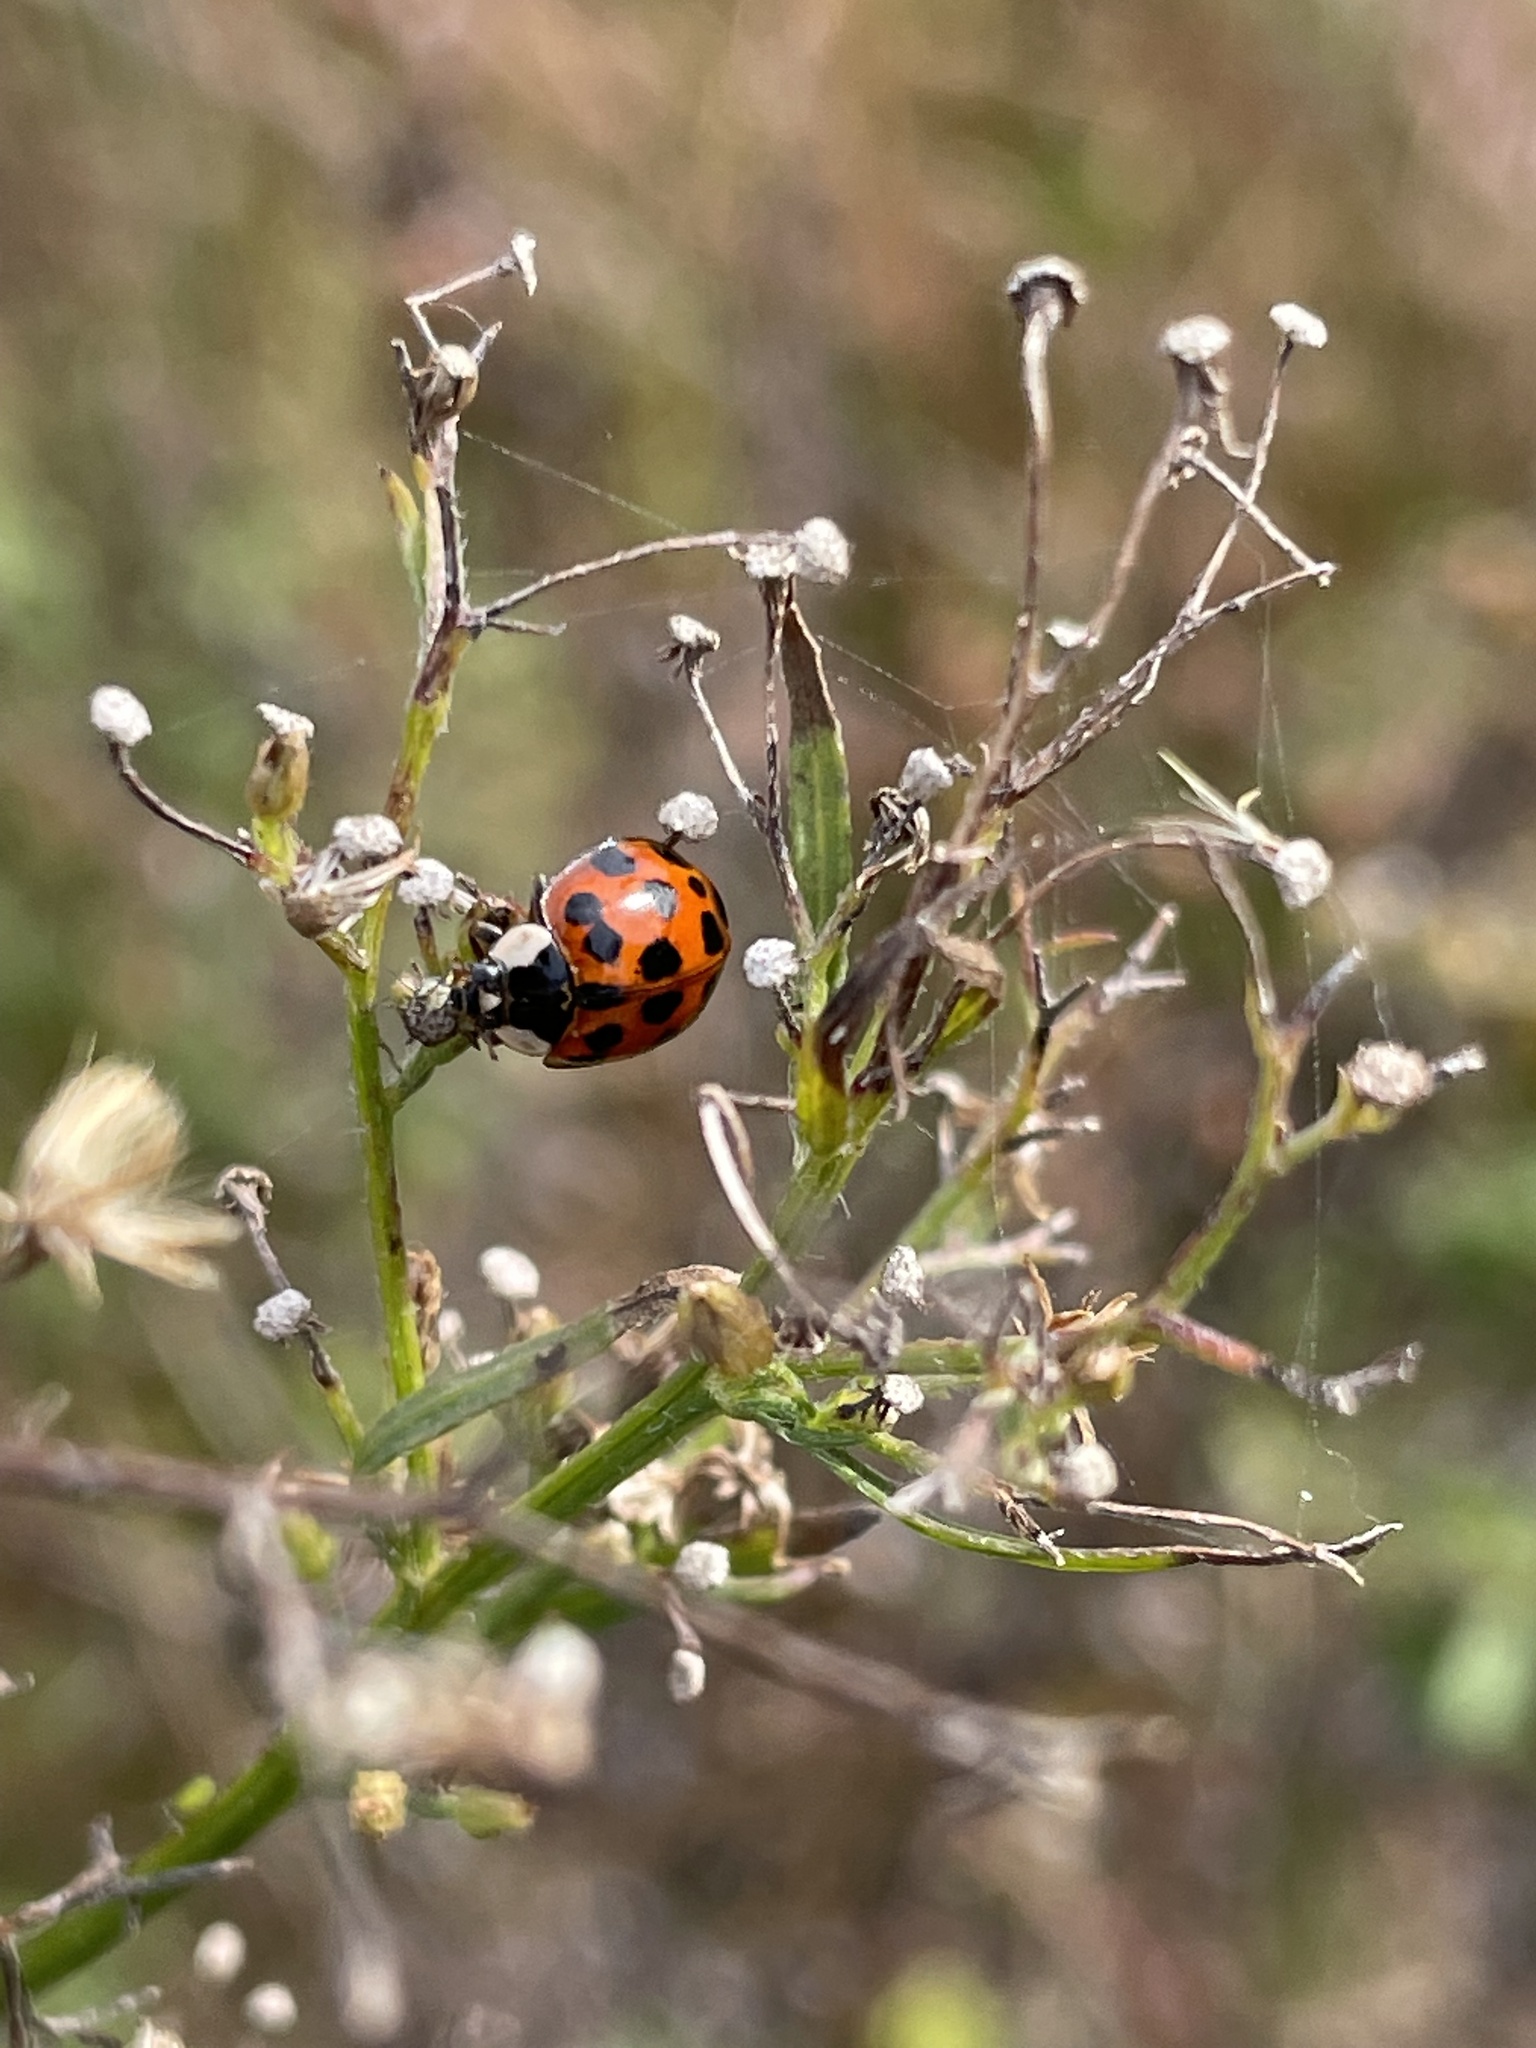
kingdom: Animalia
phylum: Arthropoda
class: Insecta
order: Coleoptera
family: Coccinellidae
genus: Harmonia
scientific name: Harmonia axyridis
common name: Harlequin ladybird
